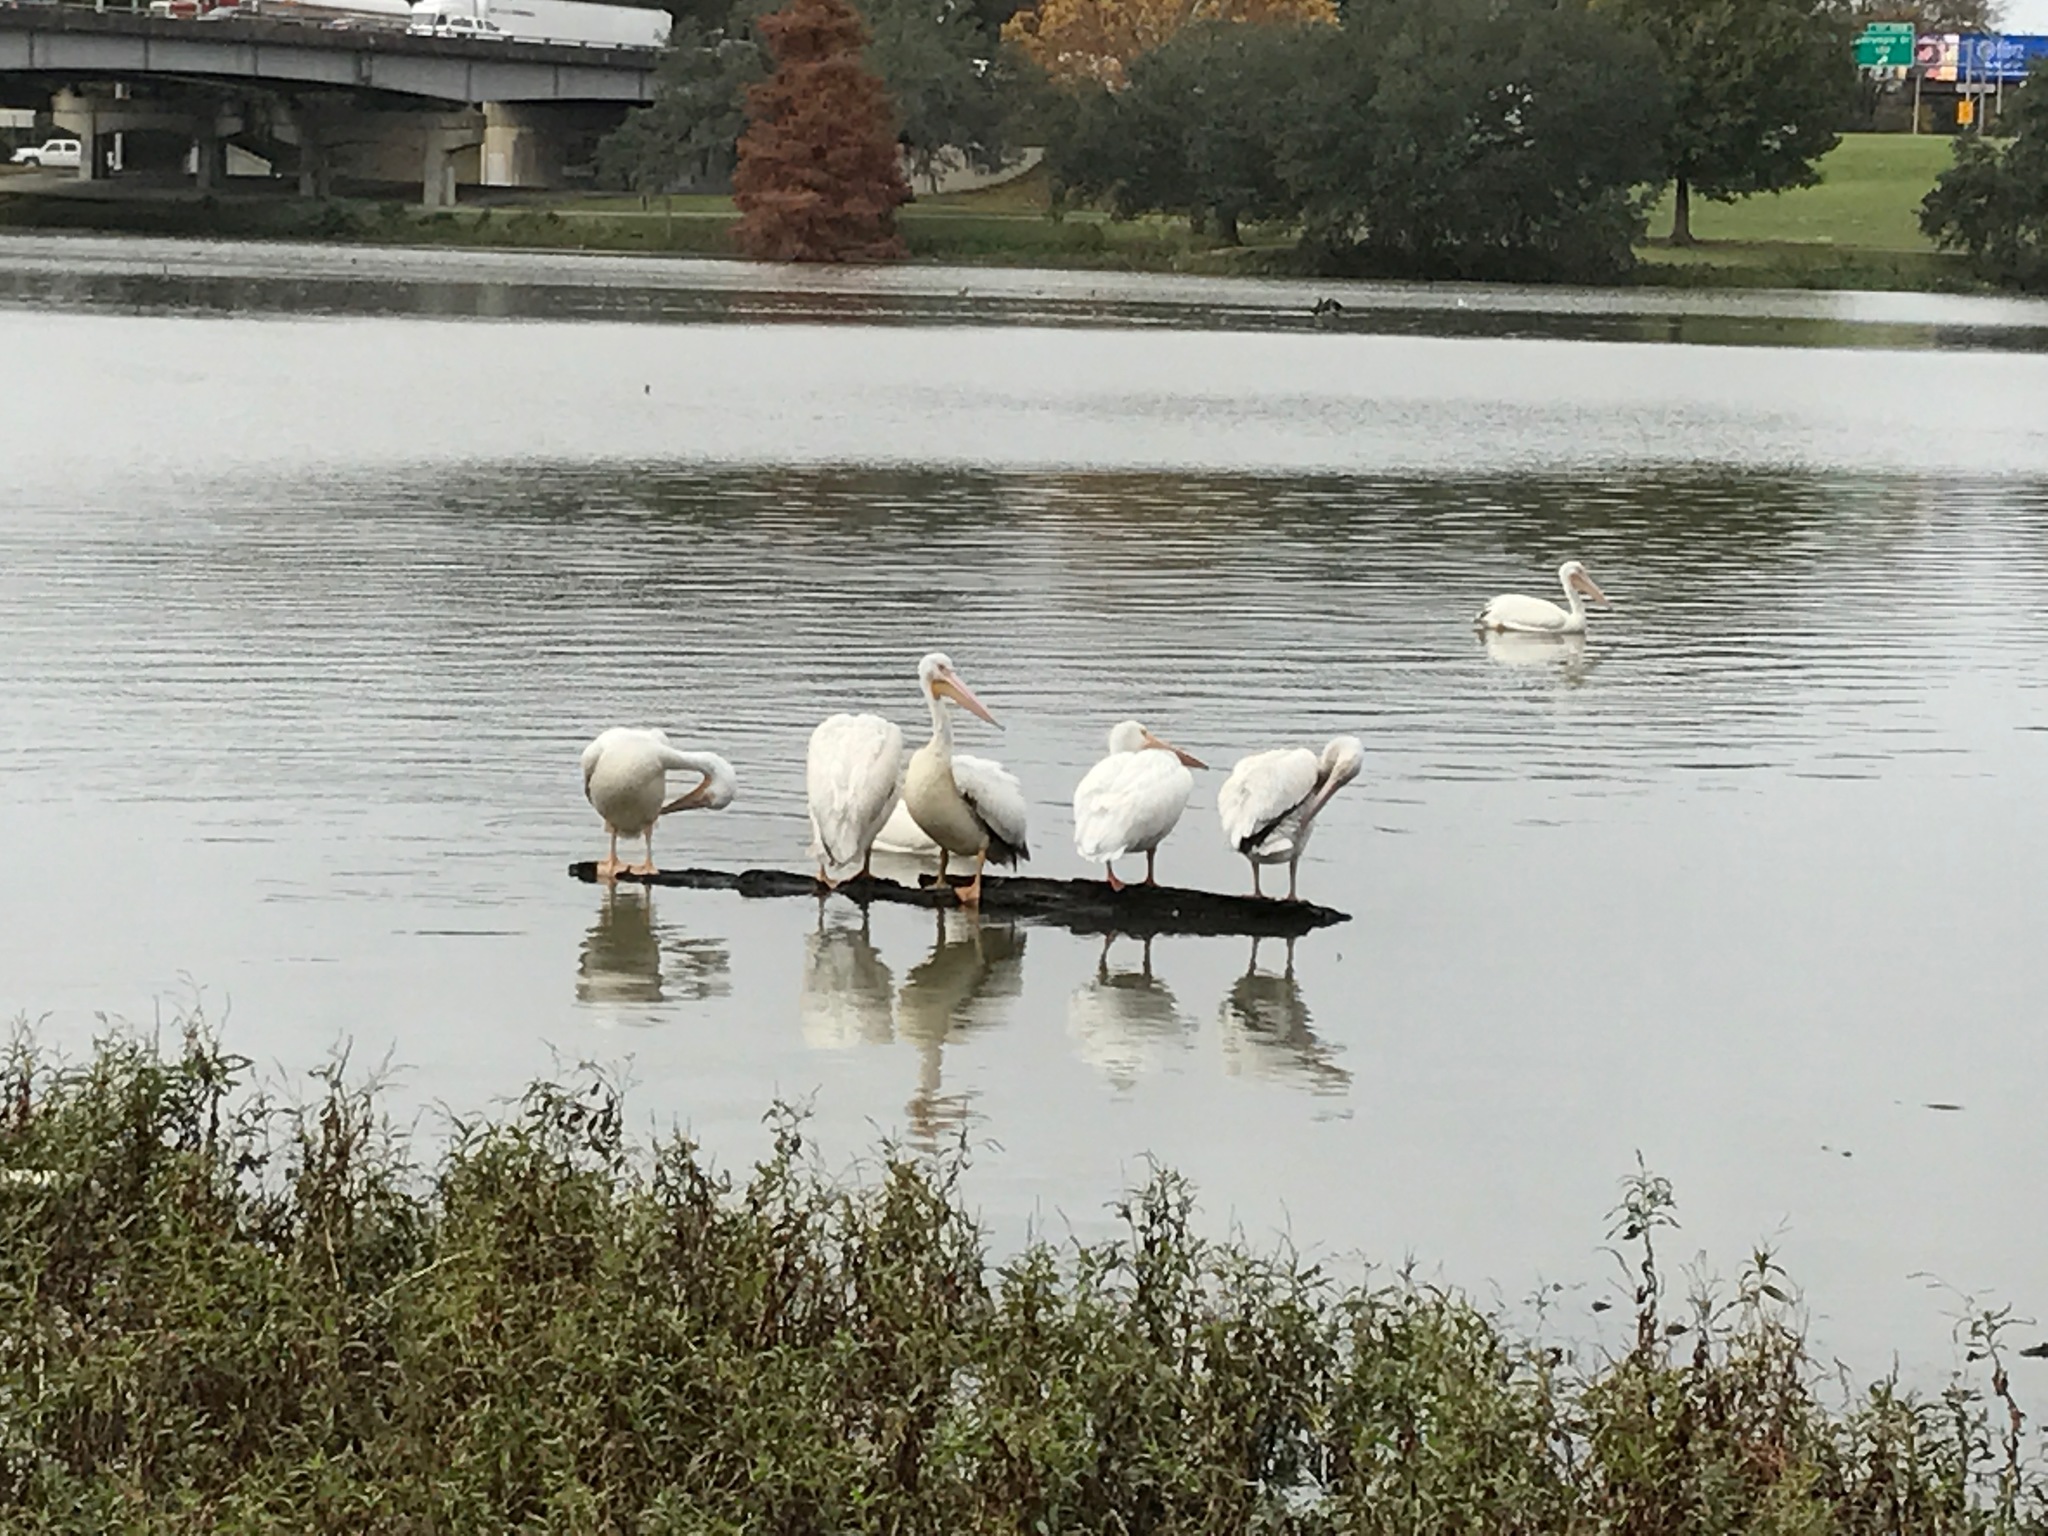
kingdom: Animalia
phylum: Chordata
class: Aves
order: Pelecaniformes
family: Pelecanidae
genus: Pelecanus
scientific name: Pelecanus erythrorhynchos
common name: American white pelican
